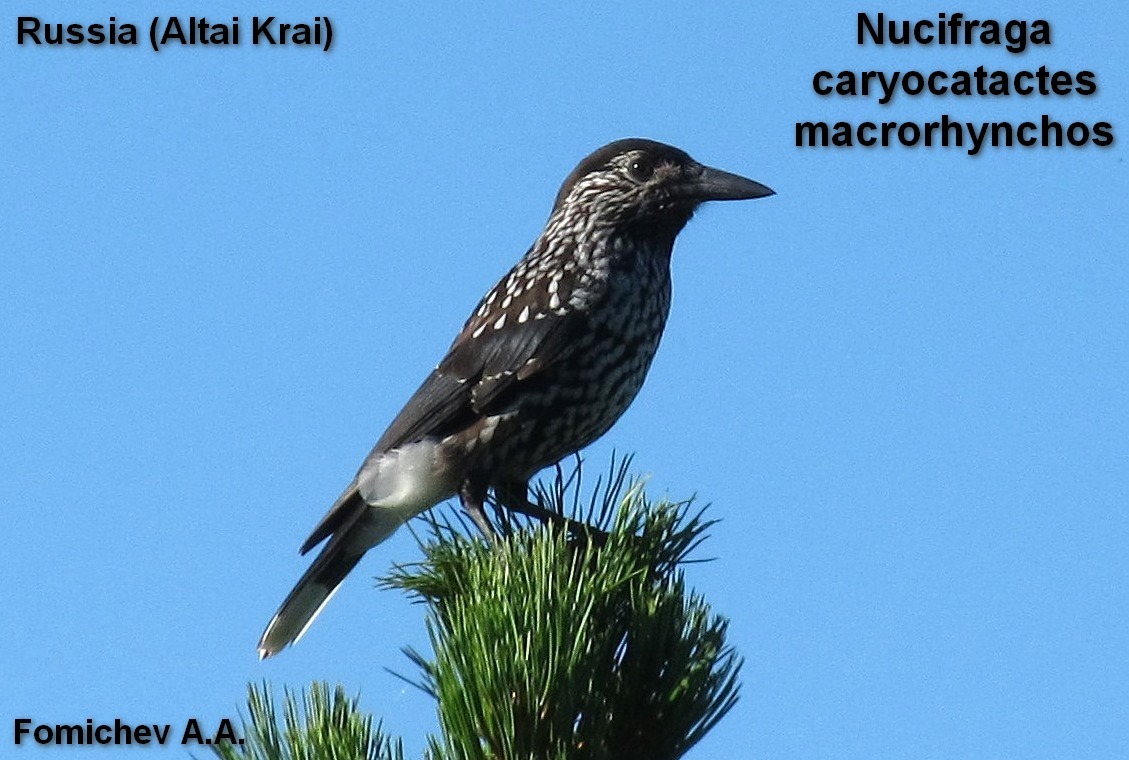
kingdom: Animalia
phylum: Chordata
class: Aves
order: Passeriformes
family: Corvidae
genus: Nucifraga
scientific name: Nucifraga caryocatactes
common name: Spotted nutcracker
